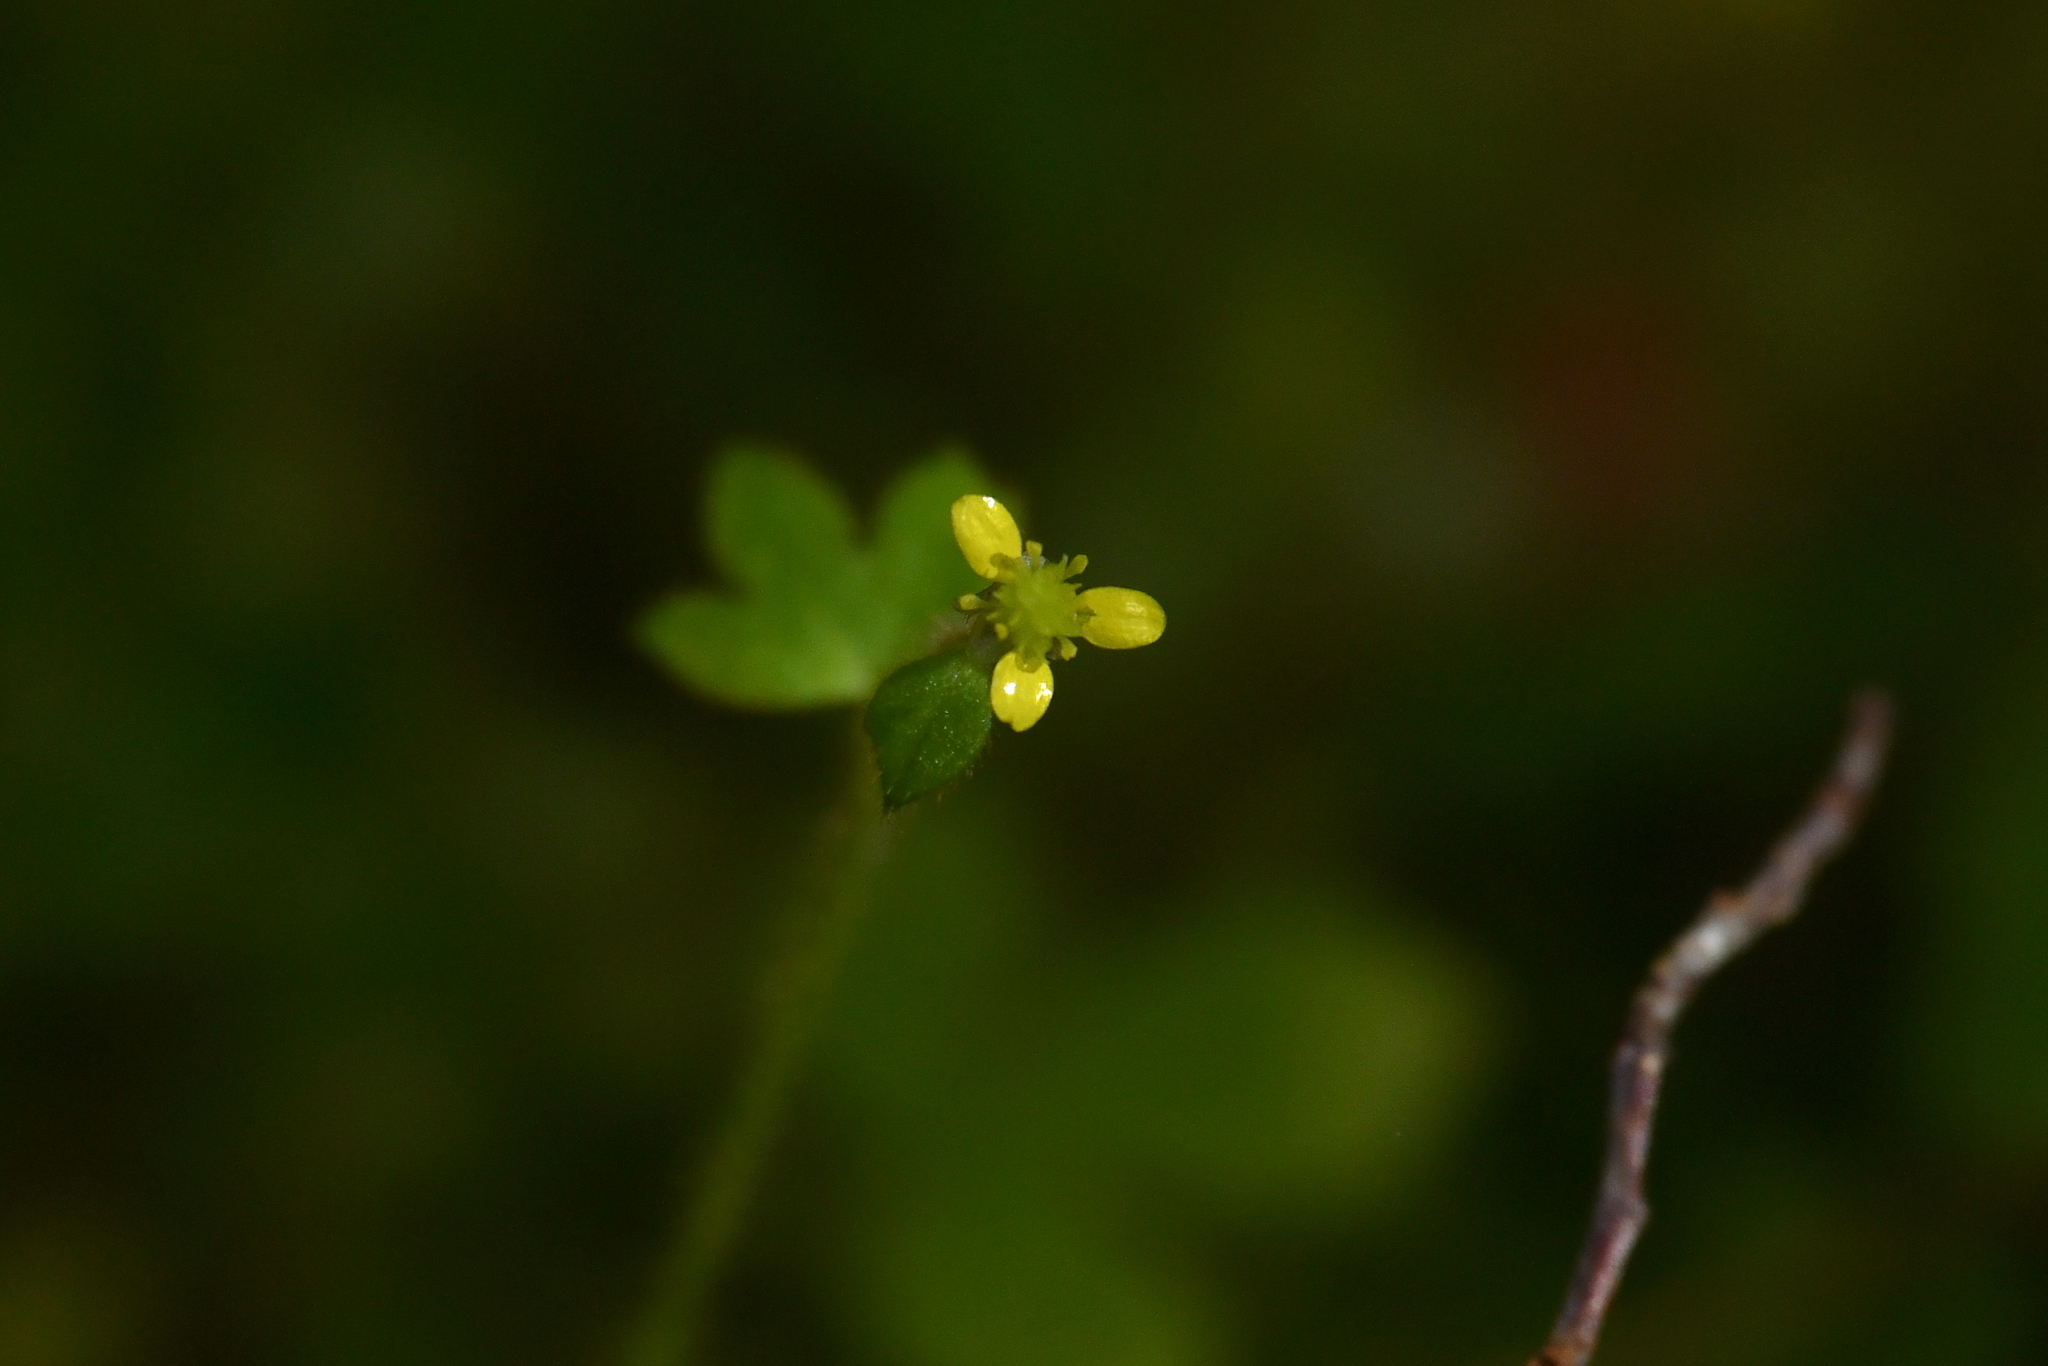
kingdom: Plantae
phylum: Tracheophyta
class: Magnoliopsida
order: Ranunculales
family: Ranunculaceae
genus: Ranunculus
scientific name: Ranunculus reflexus
